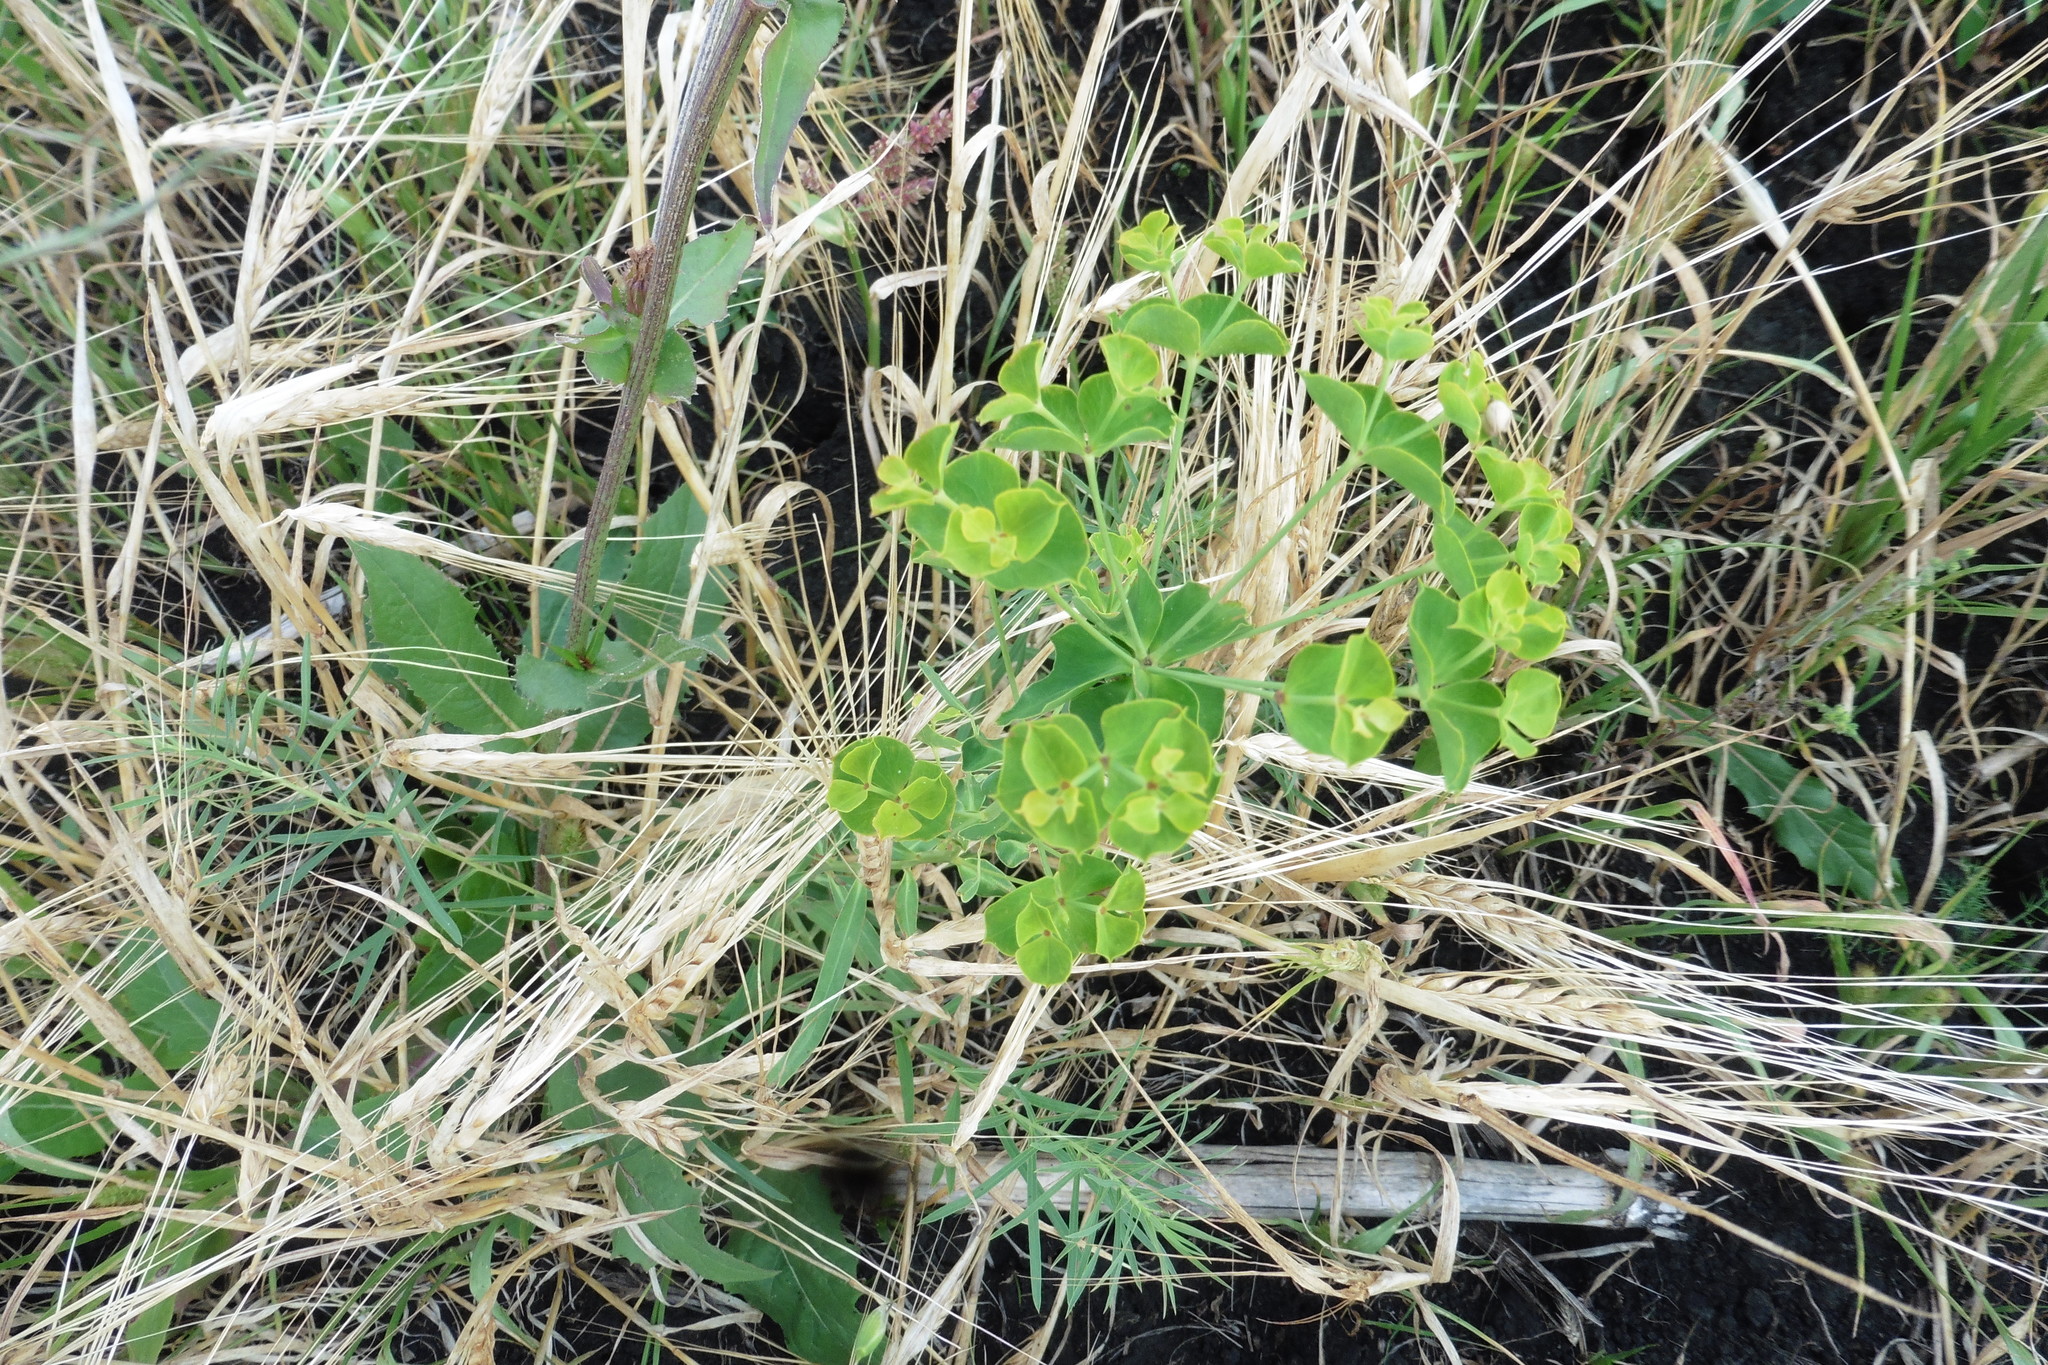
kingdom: Plantae
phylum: Tracheophyta
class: Magnoliopsida
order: Malpighiales
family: Euphorbiaceae
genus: Euphorbia
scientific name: Euphorbia virgata
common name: Leafy spurge
